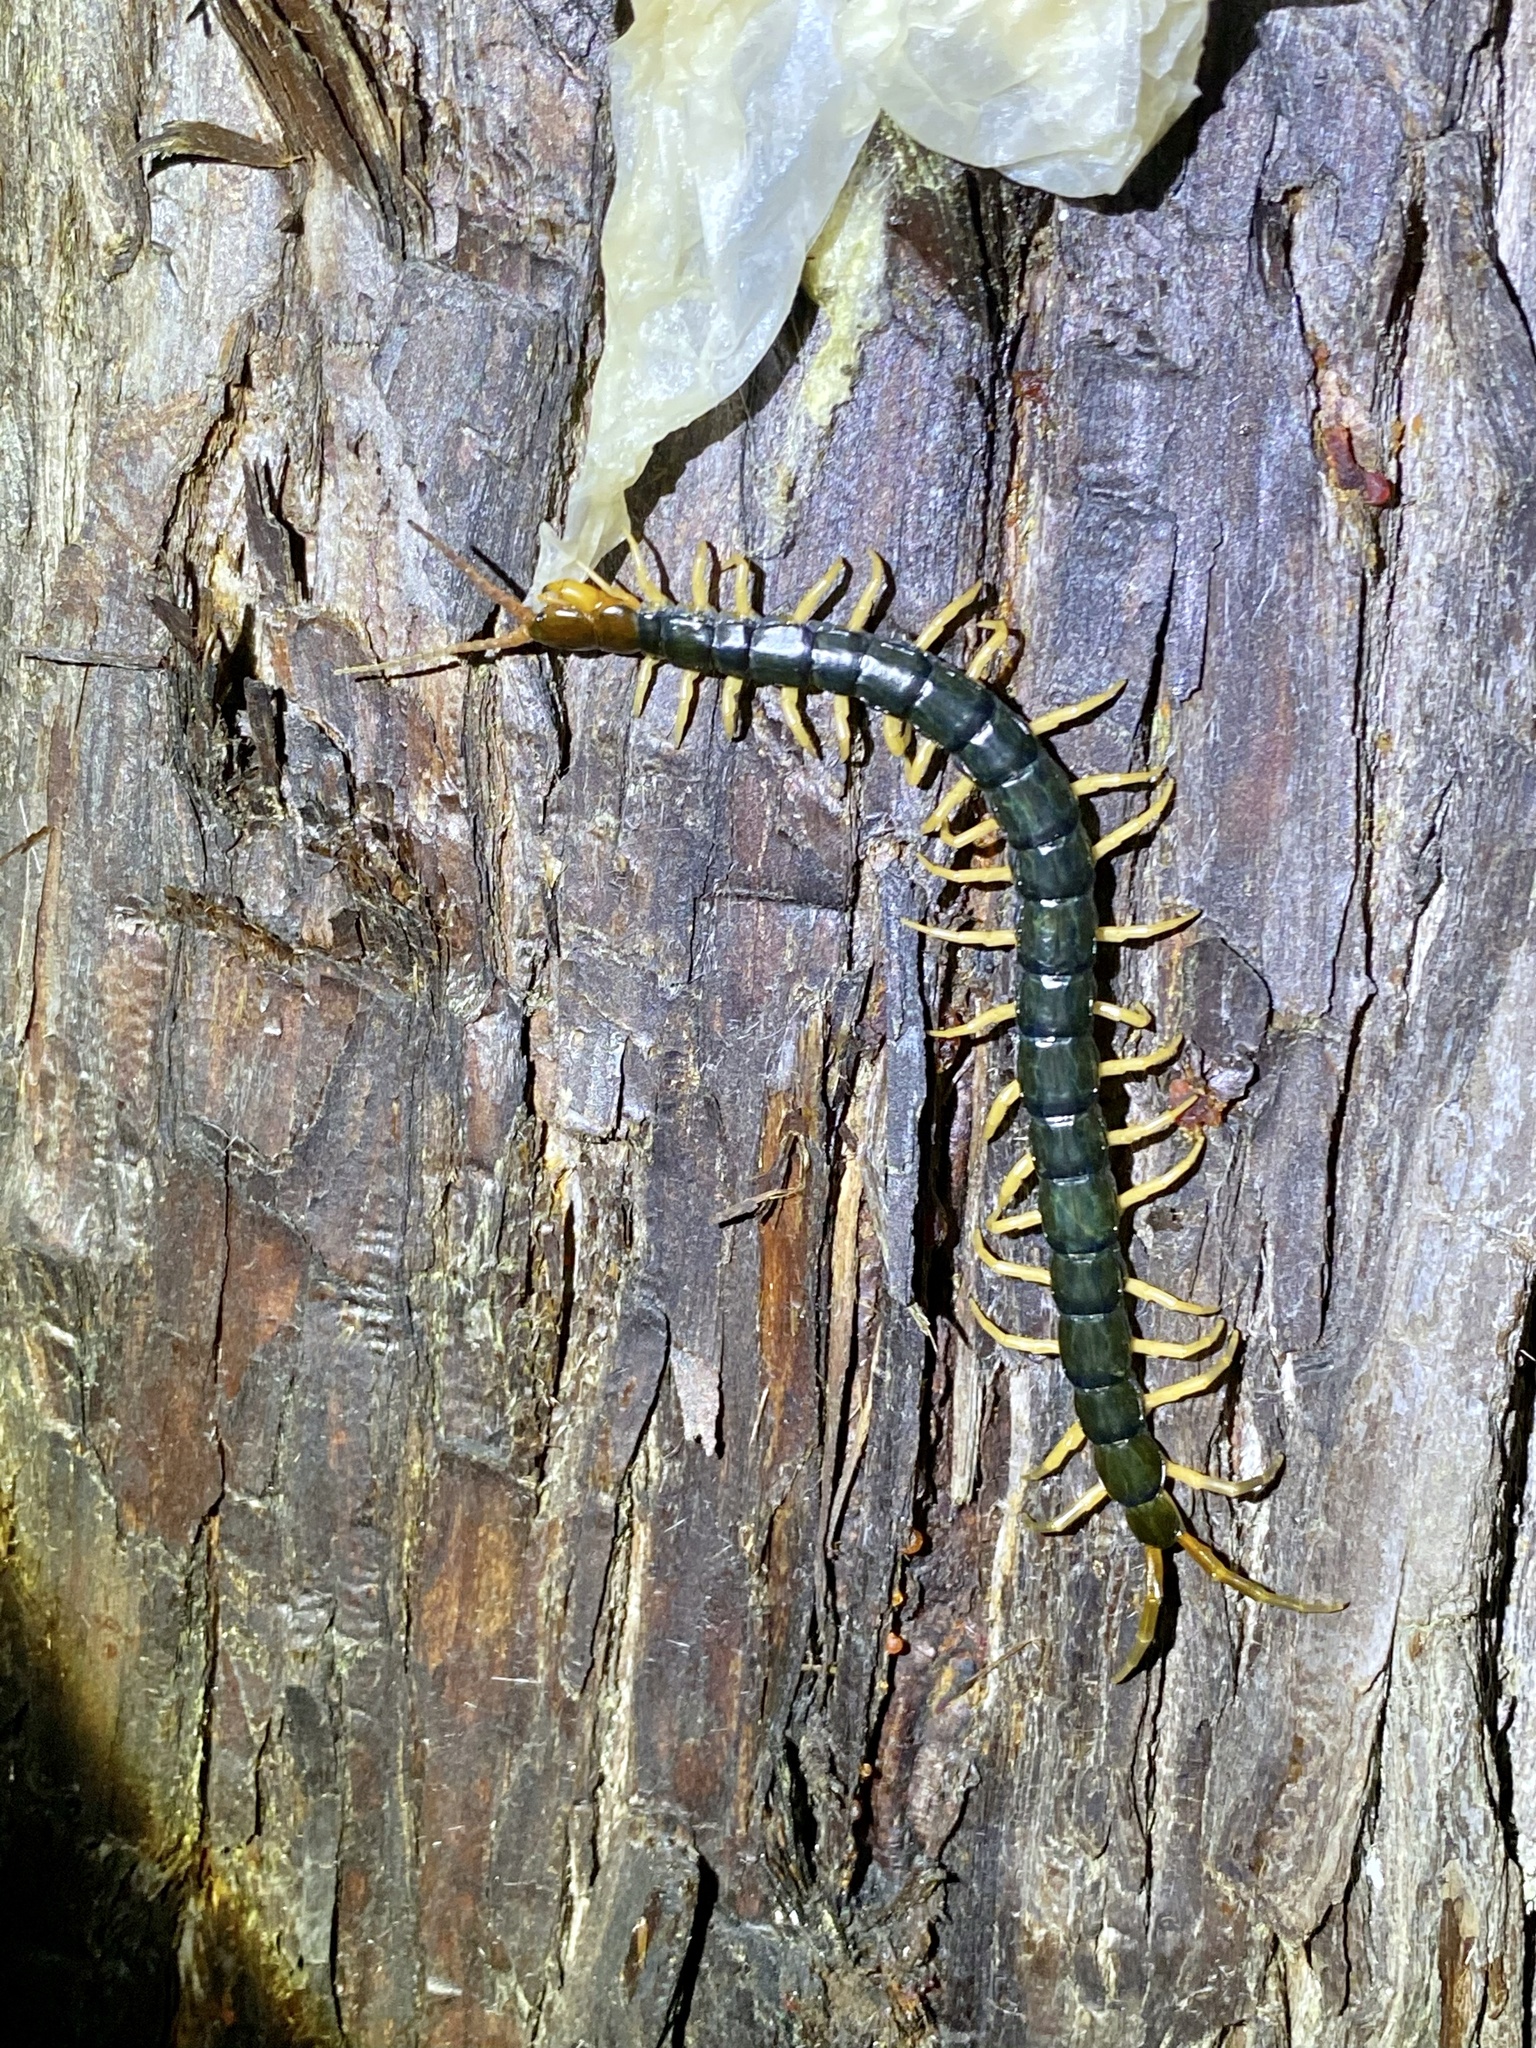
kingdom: Animalia
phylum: Arthropoda
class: Chilopoda
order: Scolopendromorpha
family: Scolopendridae
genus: Scolopendra
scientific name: Scolopendra mutilans
